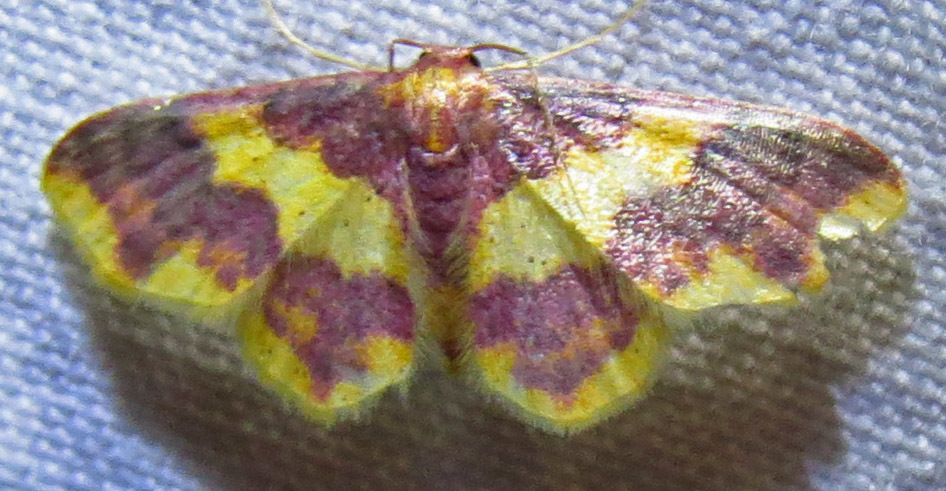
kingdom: Animalia
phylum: Arthropoda
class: Insecta
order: Lepidoptera
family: Geometridae
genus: Lophosis
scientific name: Lophosis labeculata
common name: Stained lophosis moth
